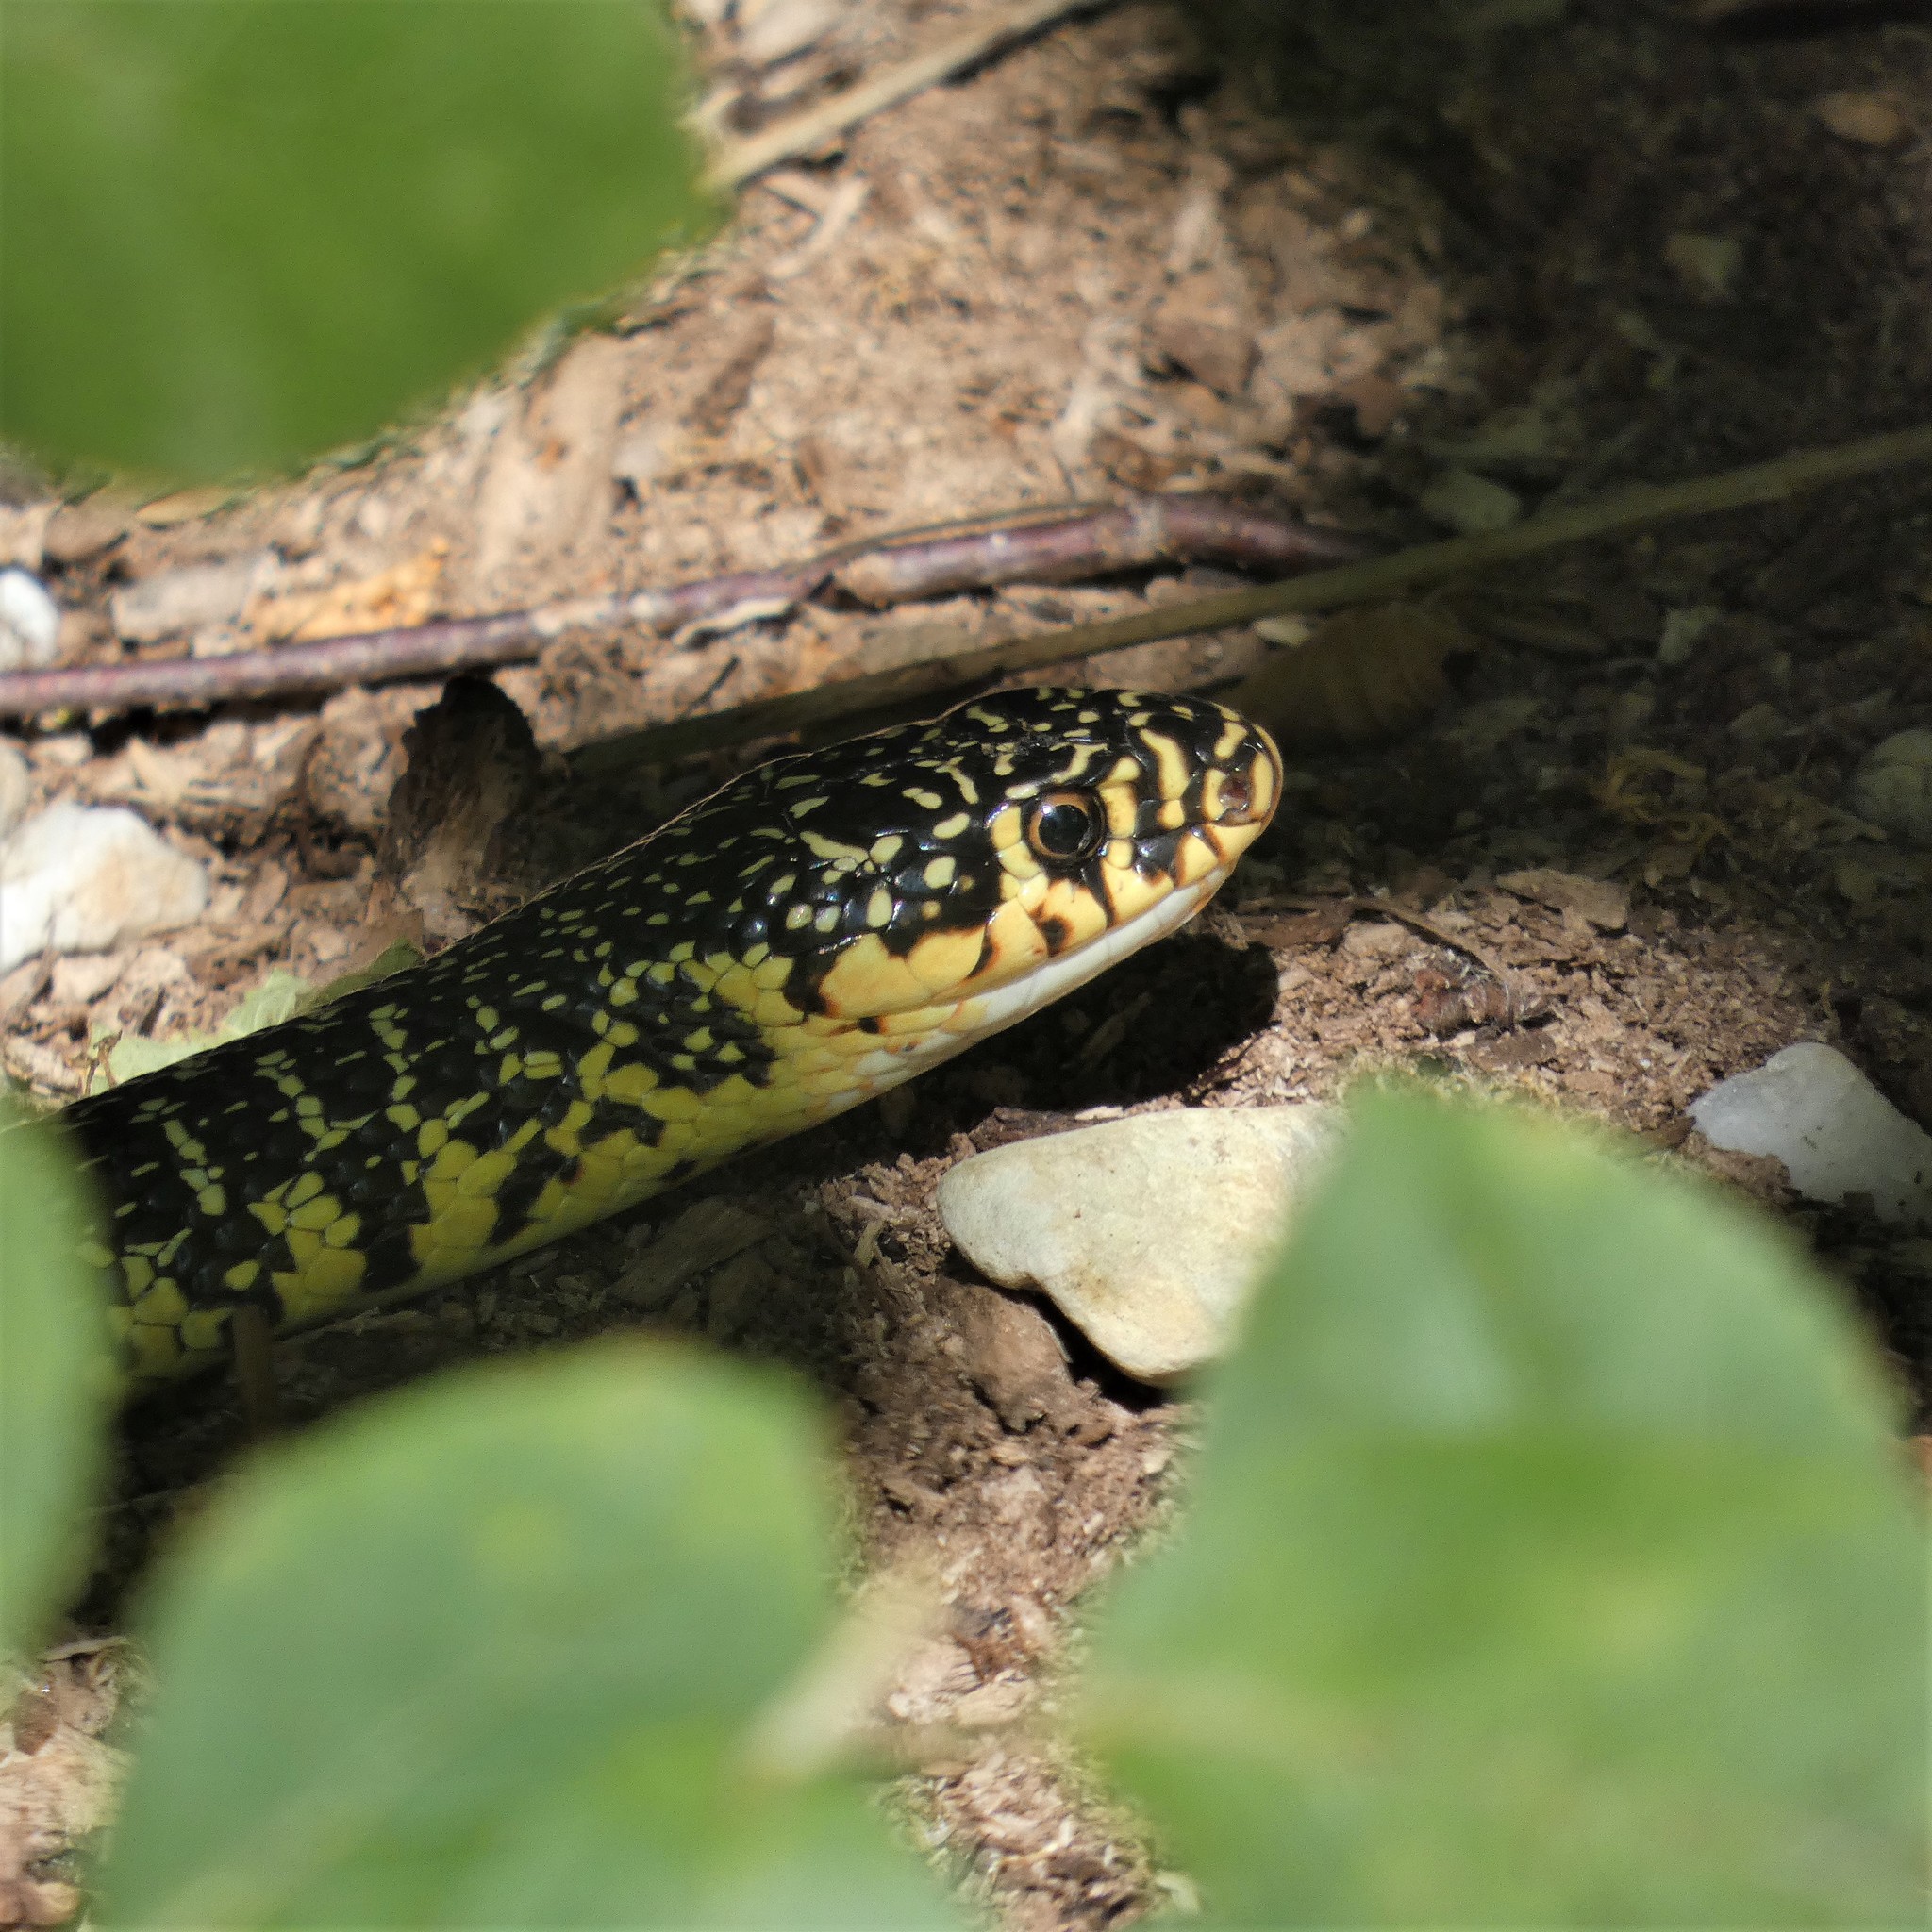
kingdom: Animalia
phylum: Chordata
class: Squamata
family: Colubridae
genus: Hierophis
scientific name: Hierophis viridiflavus
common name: Green whip snake
